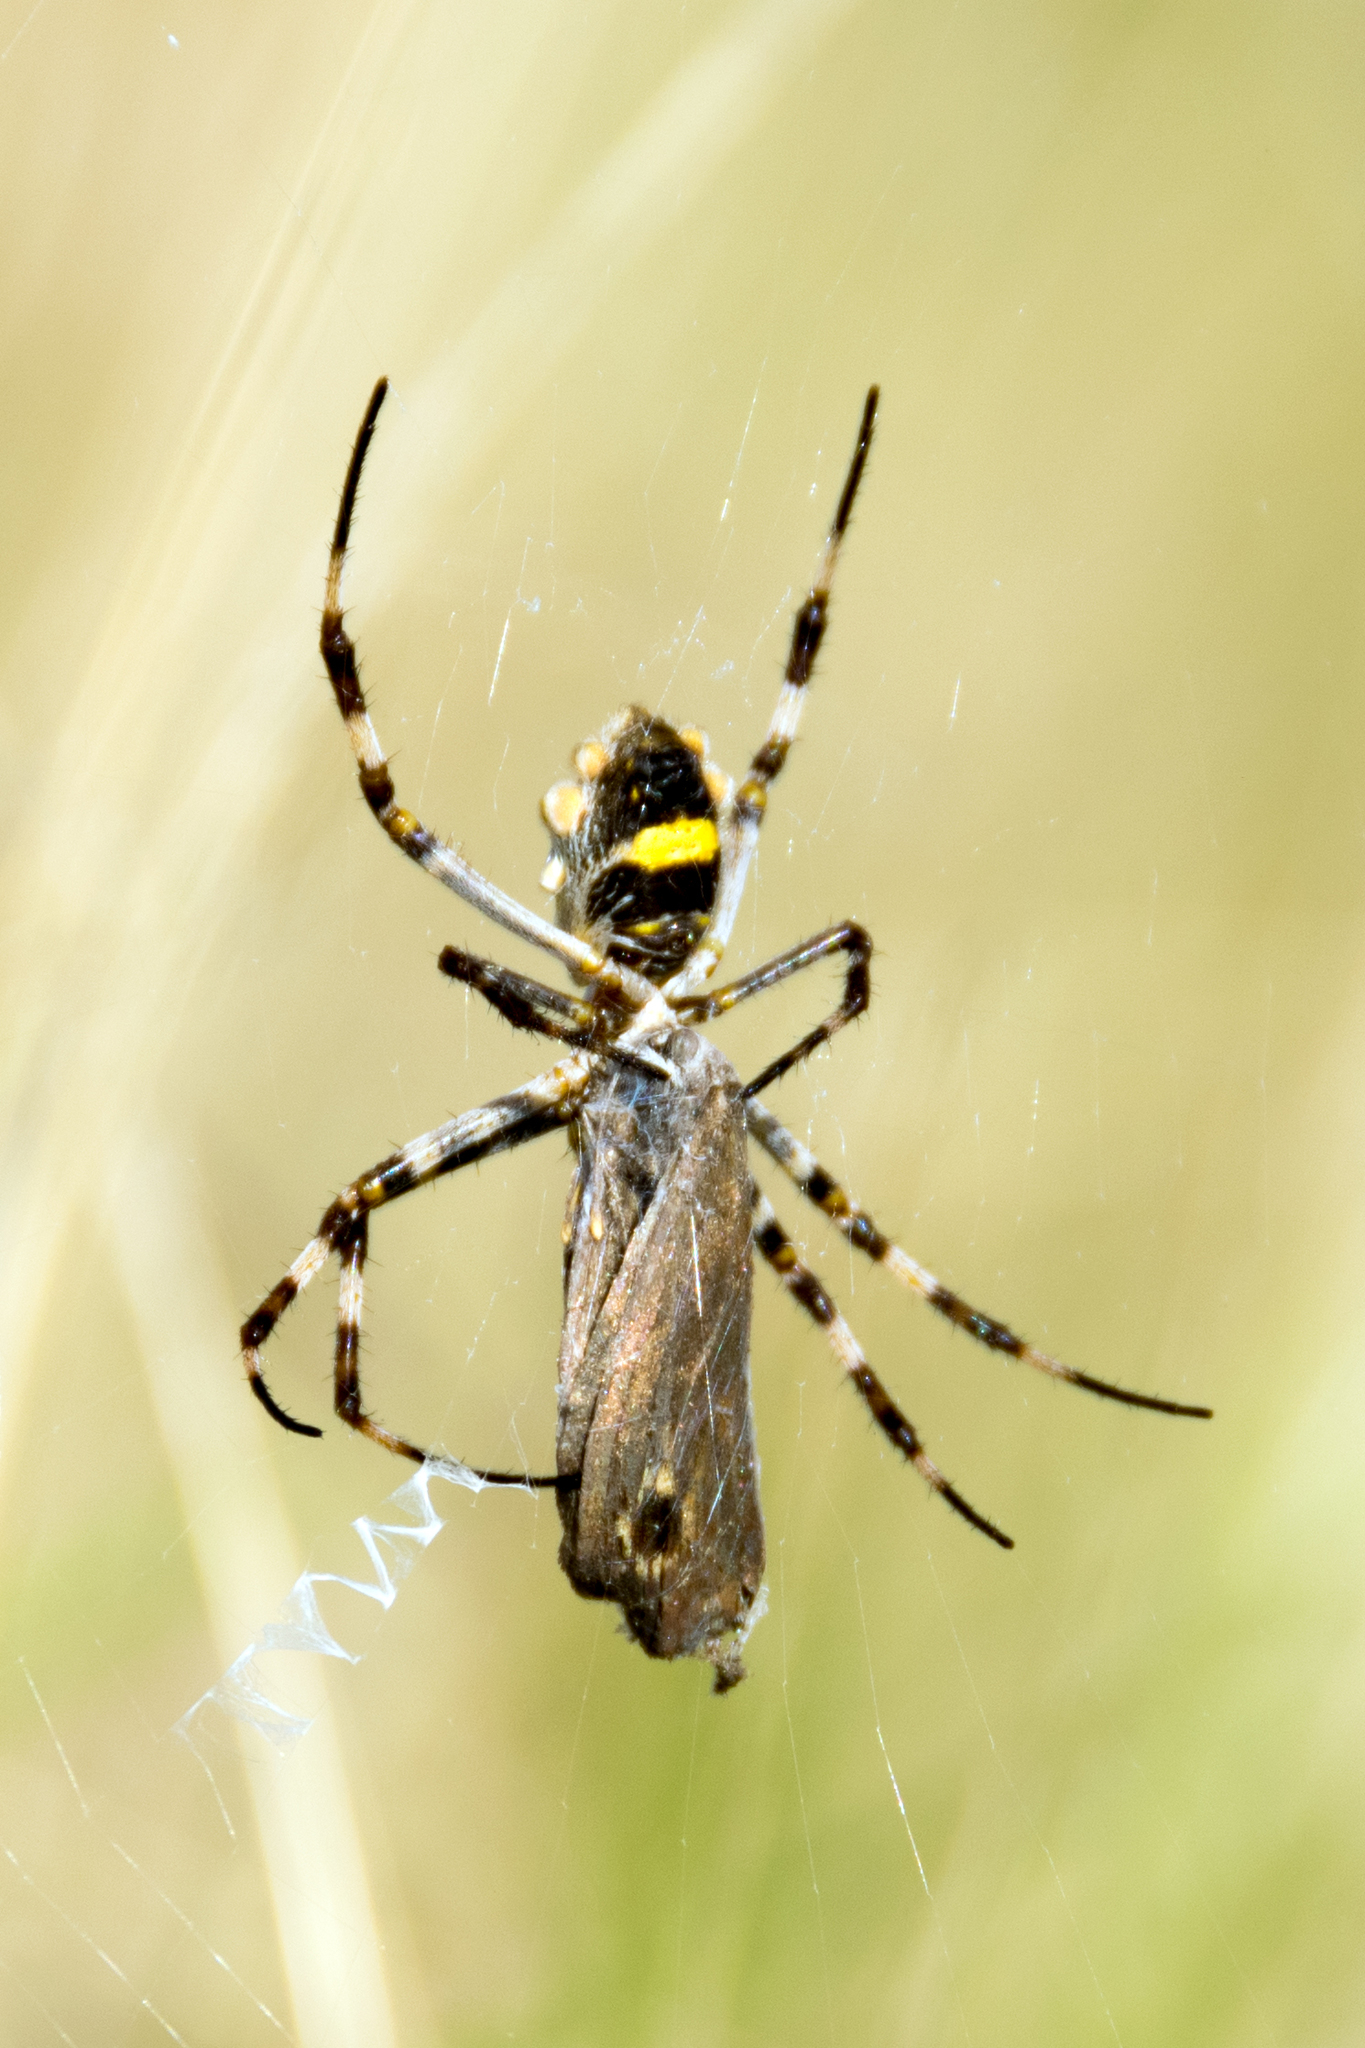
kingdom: Animalia
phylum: Arthropoda
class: Arachnida
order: Araneae
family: Araneidae
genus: Argiope
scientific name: Argiope argentata
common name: Orb weavers
